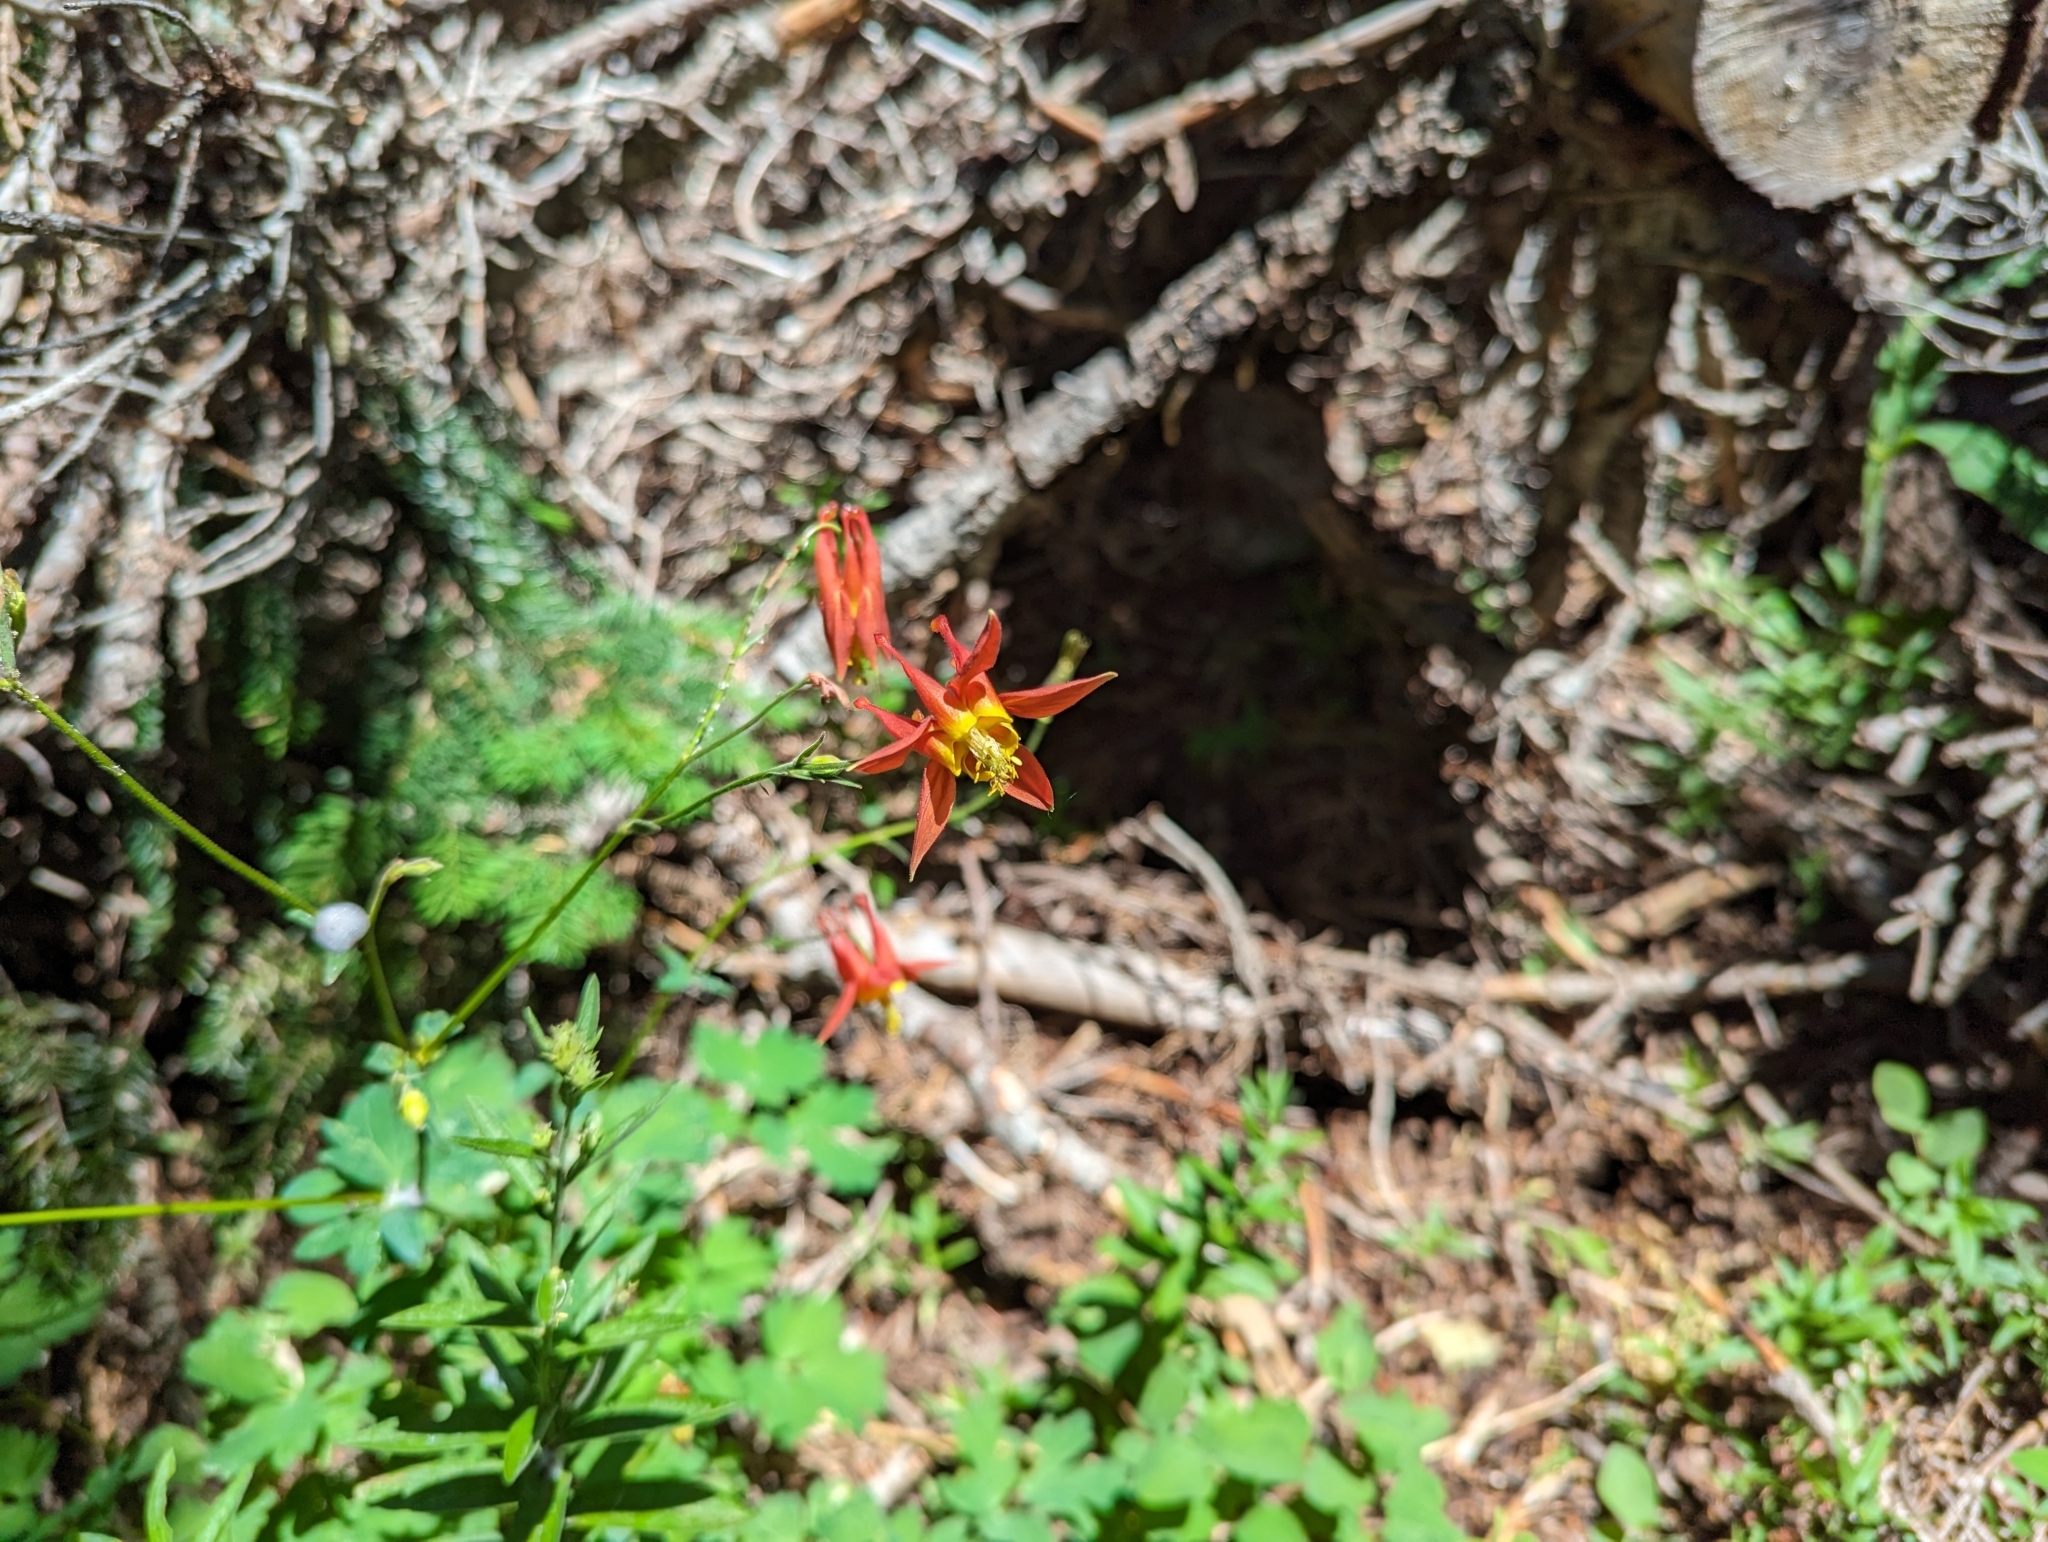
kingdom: Plantae
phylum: Tracheophyta
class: Magnoliopsida
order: Ranunculales
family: Ranunculaceae
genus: Aquilegia
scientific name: Aquilegia formosa
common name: Sitka columbine
